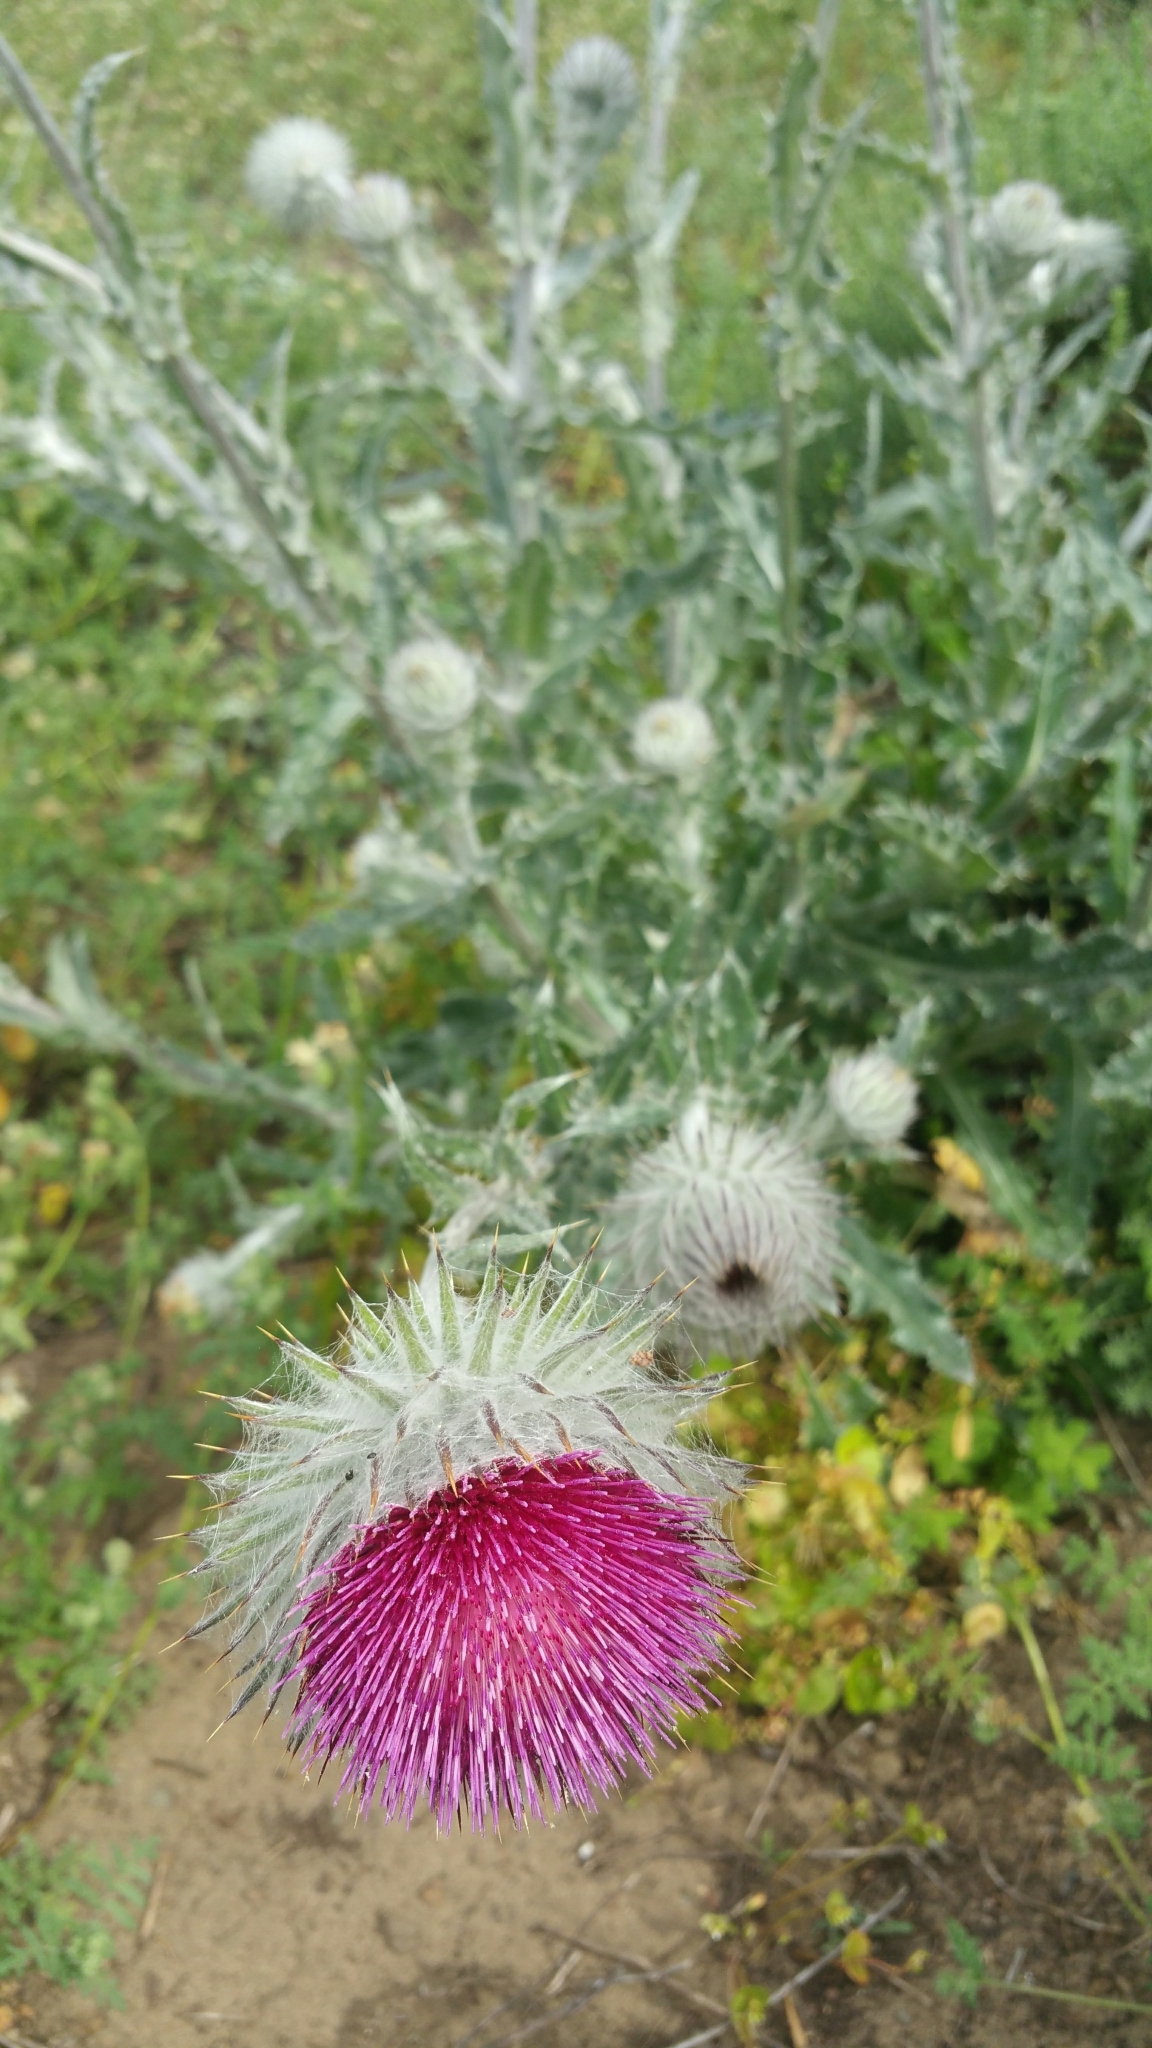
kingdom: Plantae
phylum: Tracheophyta
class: Magnoliopsida
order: Asterales
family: Asteraceae
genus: Cirsium
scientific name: Cirsium occidentale
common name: Western thistle
